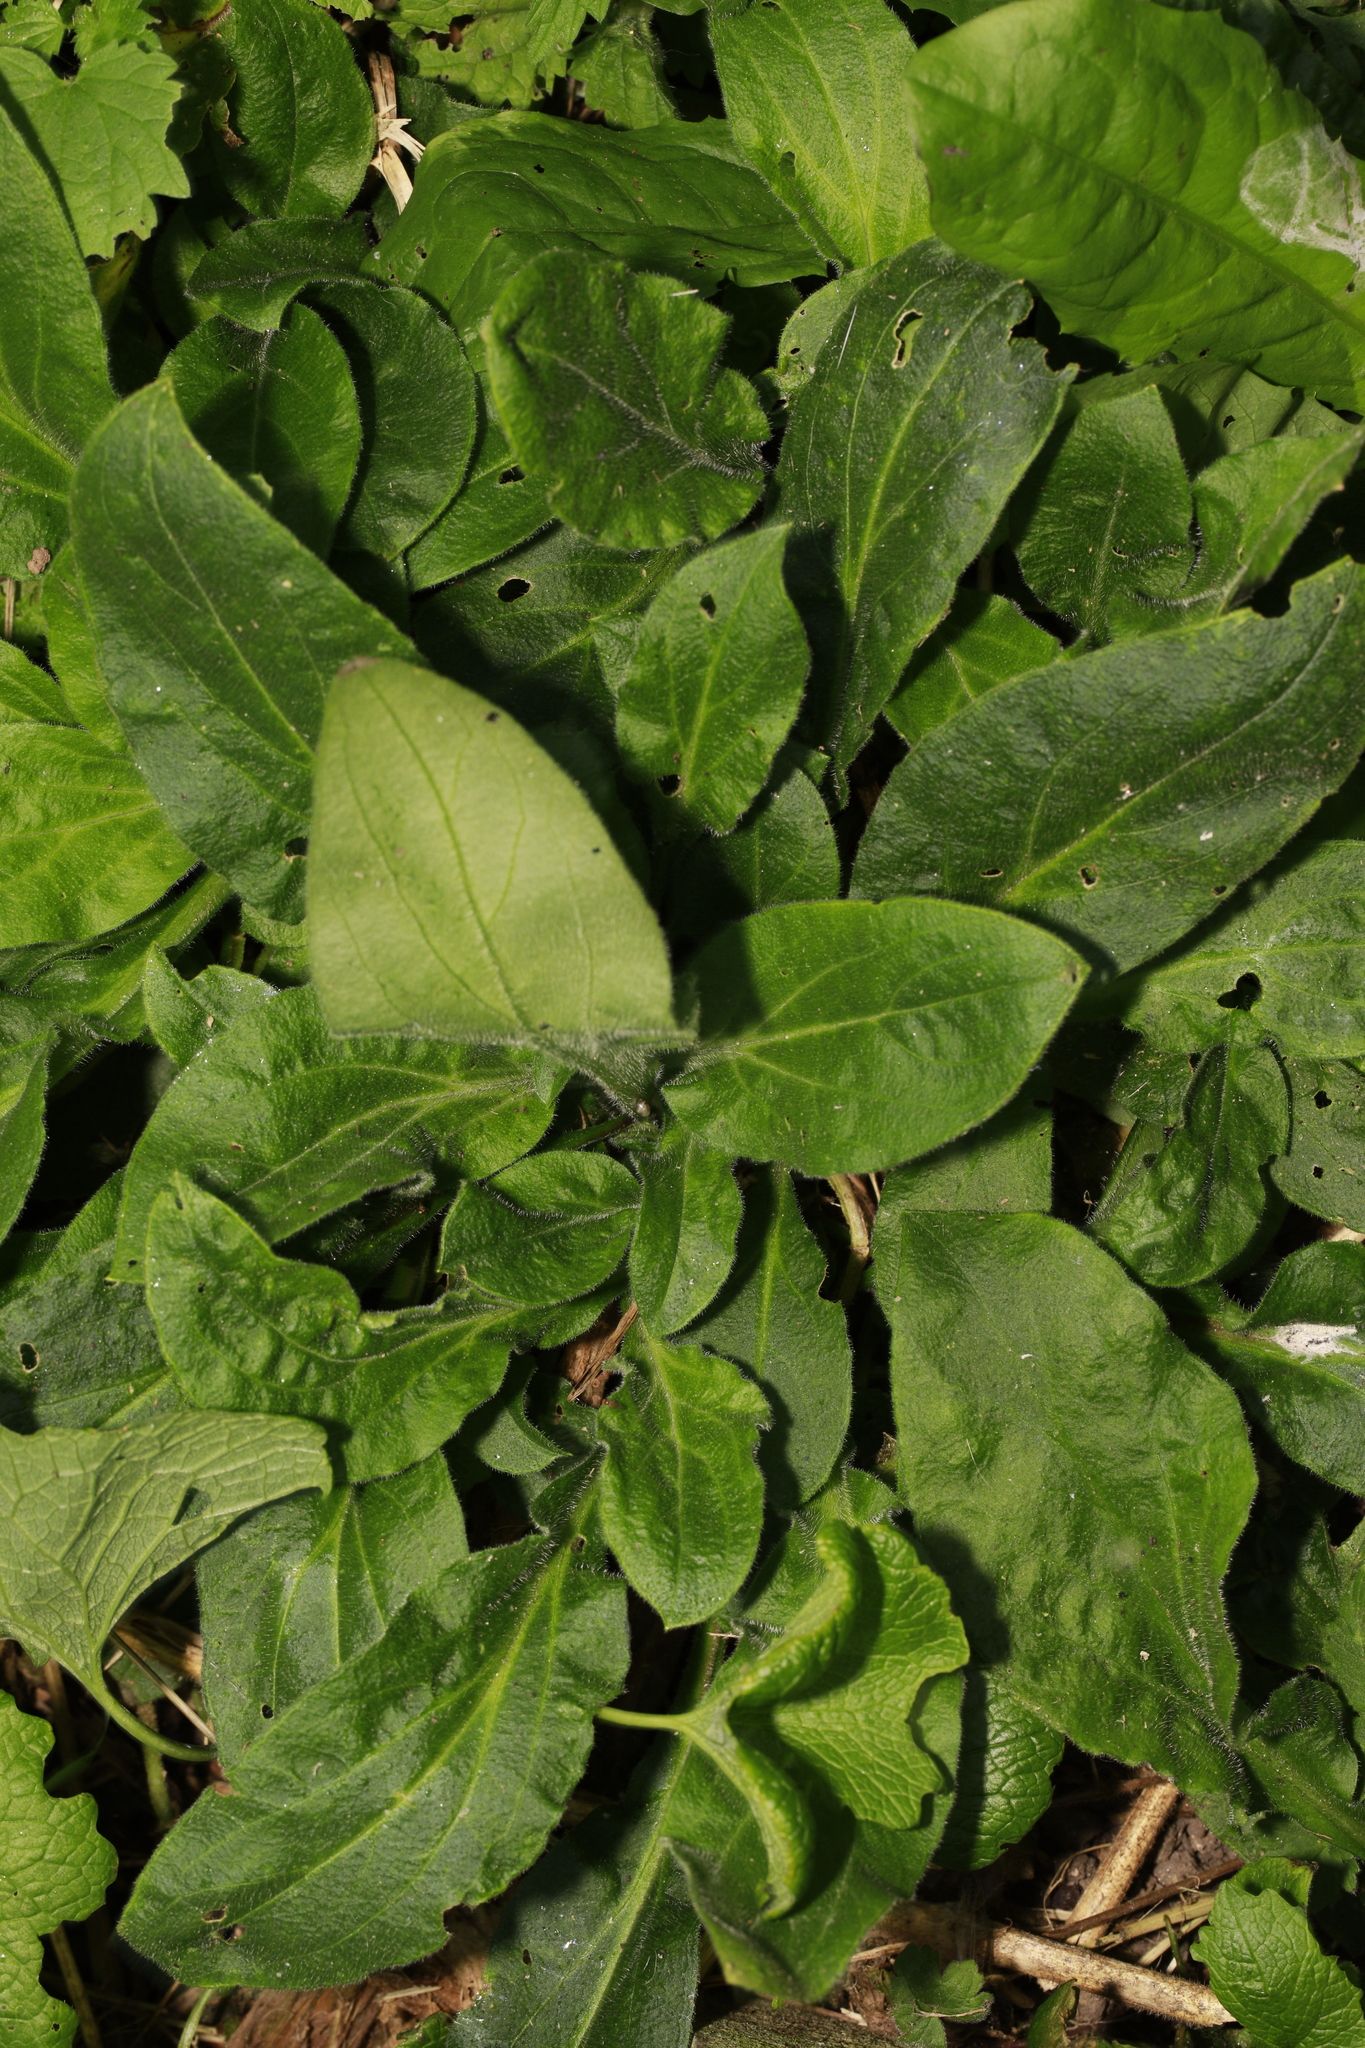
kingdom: Plantae
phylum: Tracheophyta
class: Magnoliopsida
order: Caryophyllales
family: Caryophyllaceae
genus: Silene
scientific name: Silene dioica
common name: Red campion
